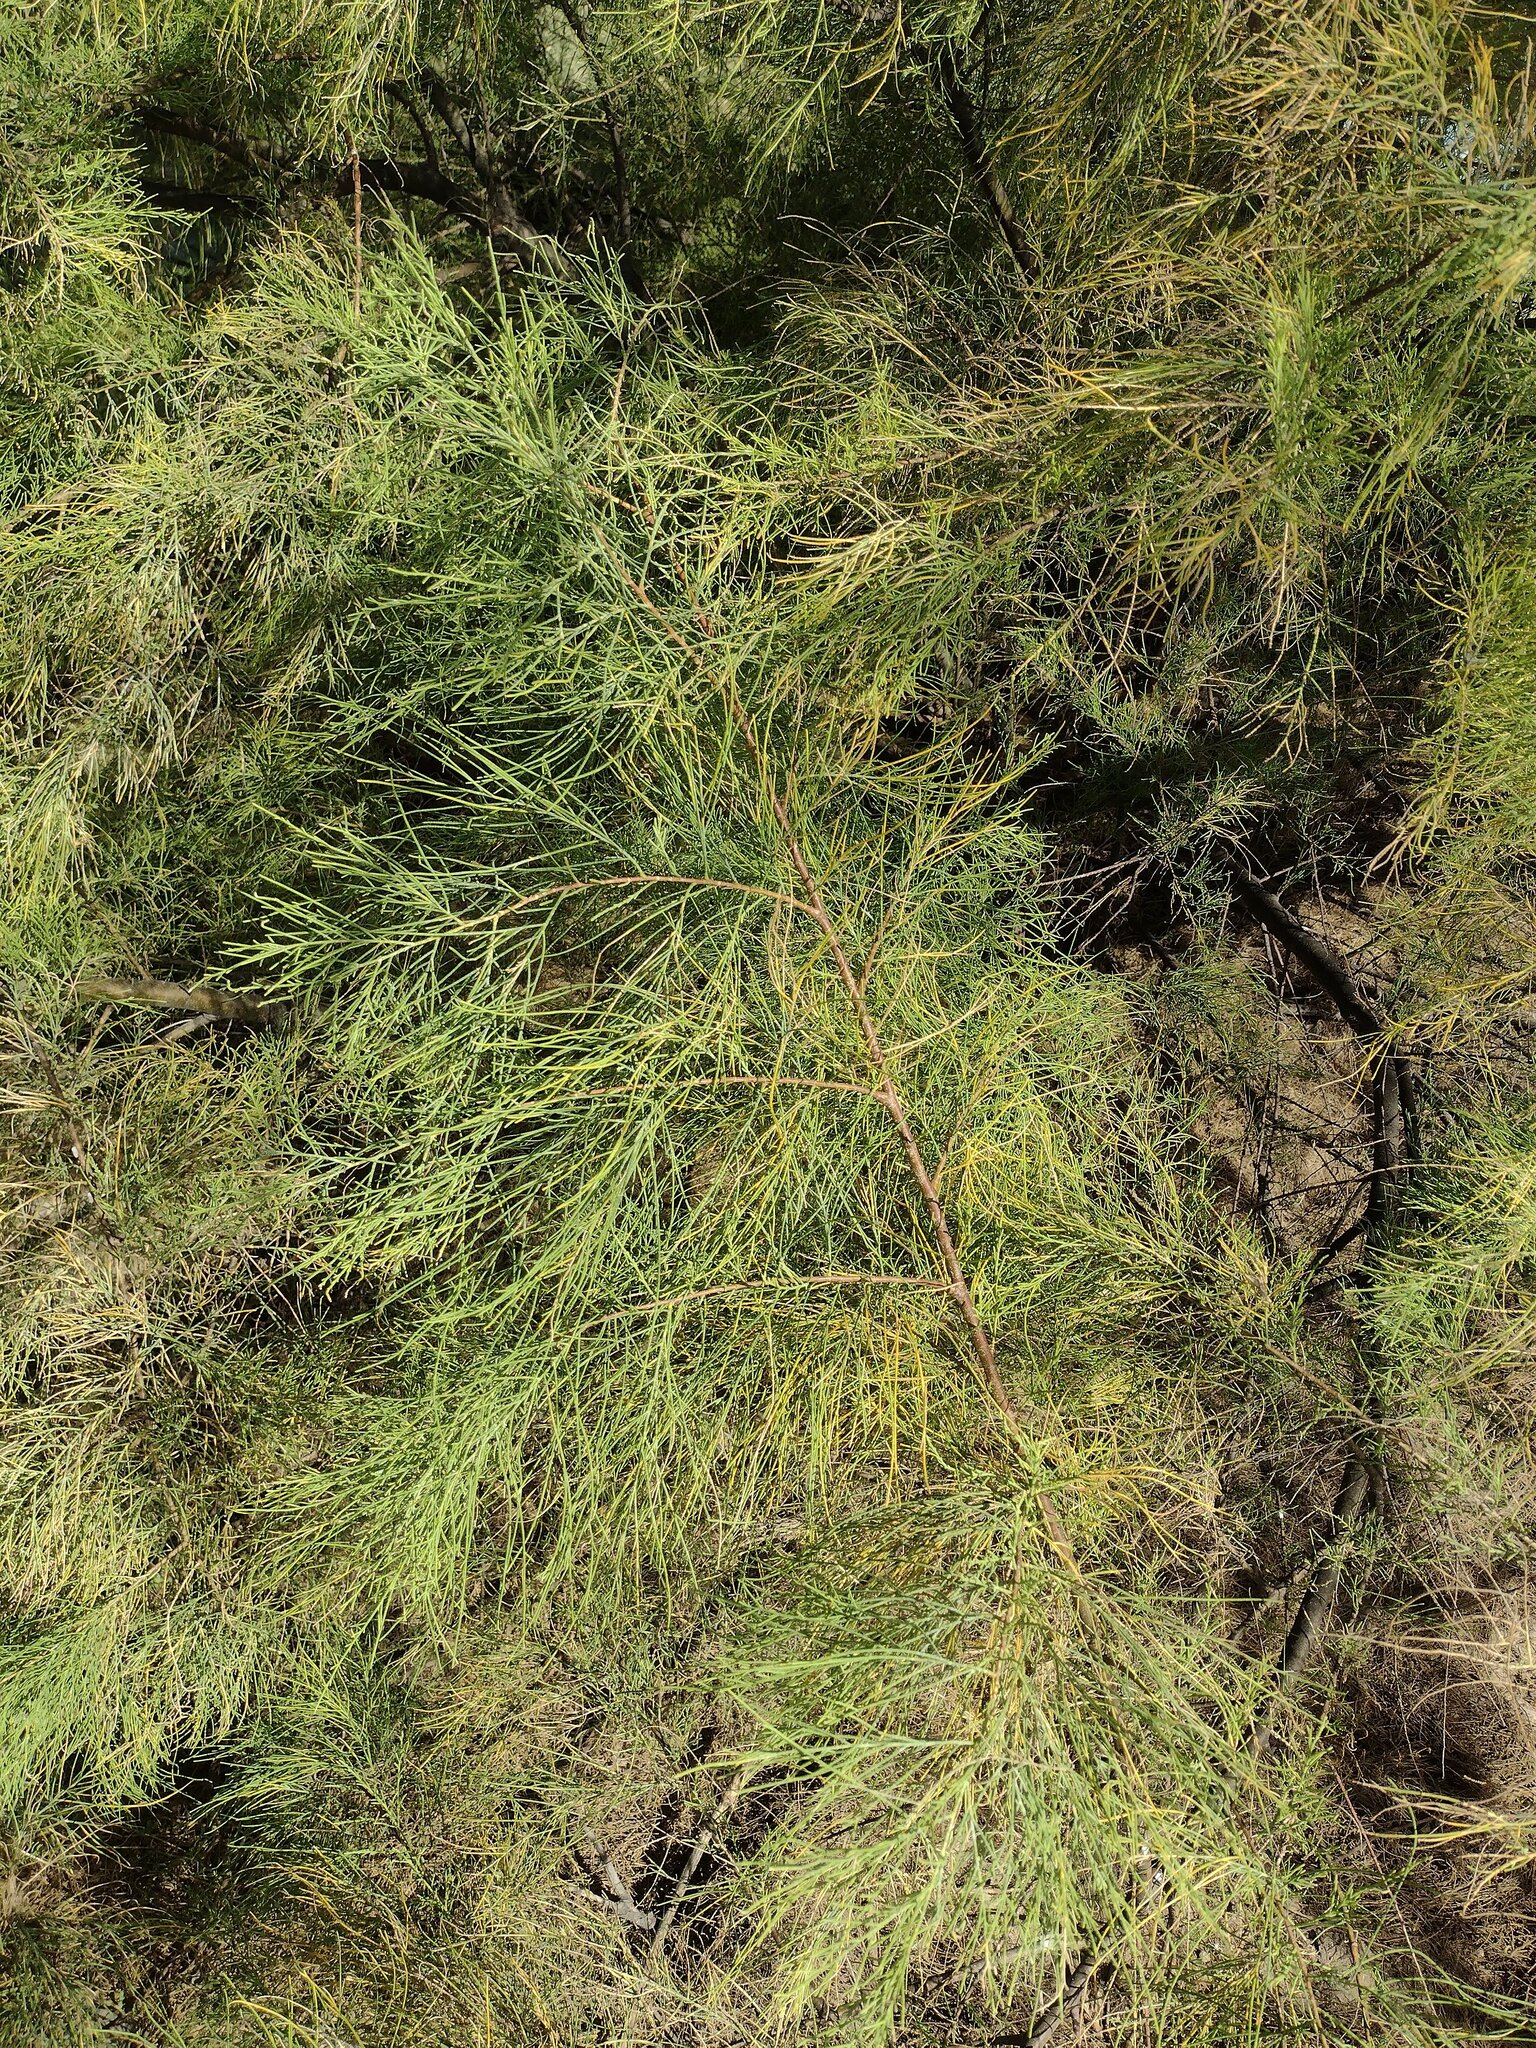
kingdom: Plantae
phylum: Tracheophyta
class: Magnoliopsida
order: Caryophyllales
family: Tamaricaceae
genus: Tamarix
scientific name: Tamarix aphylla
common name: Athel tamarisk
